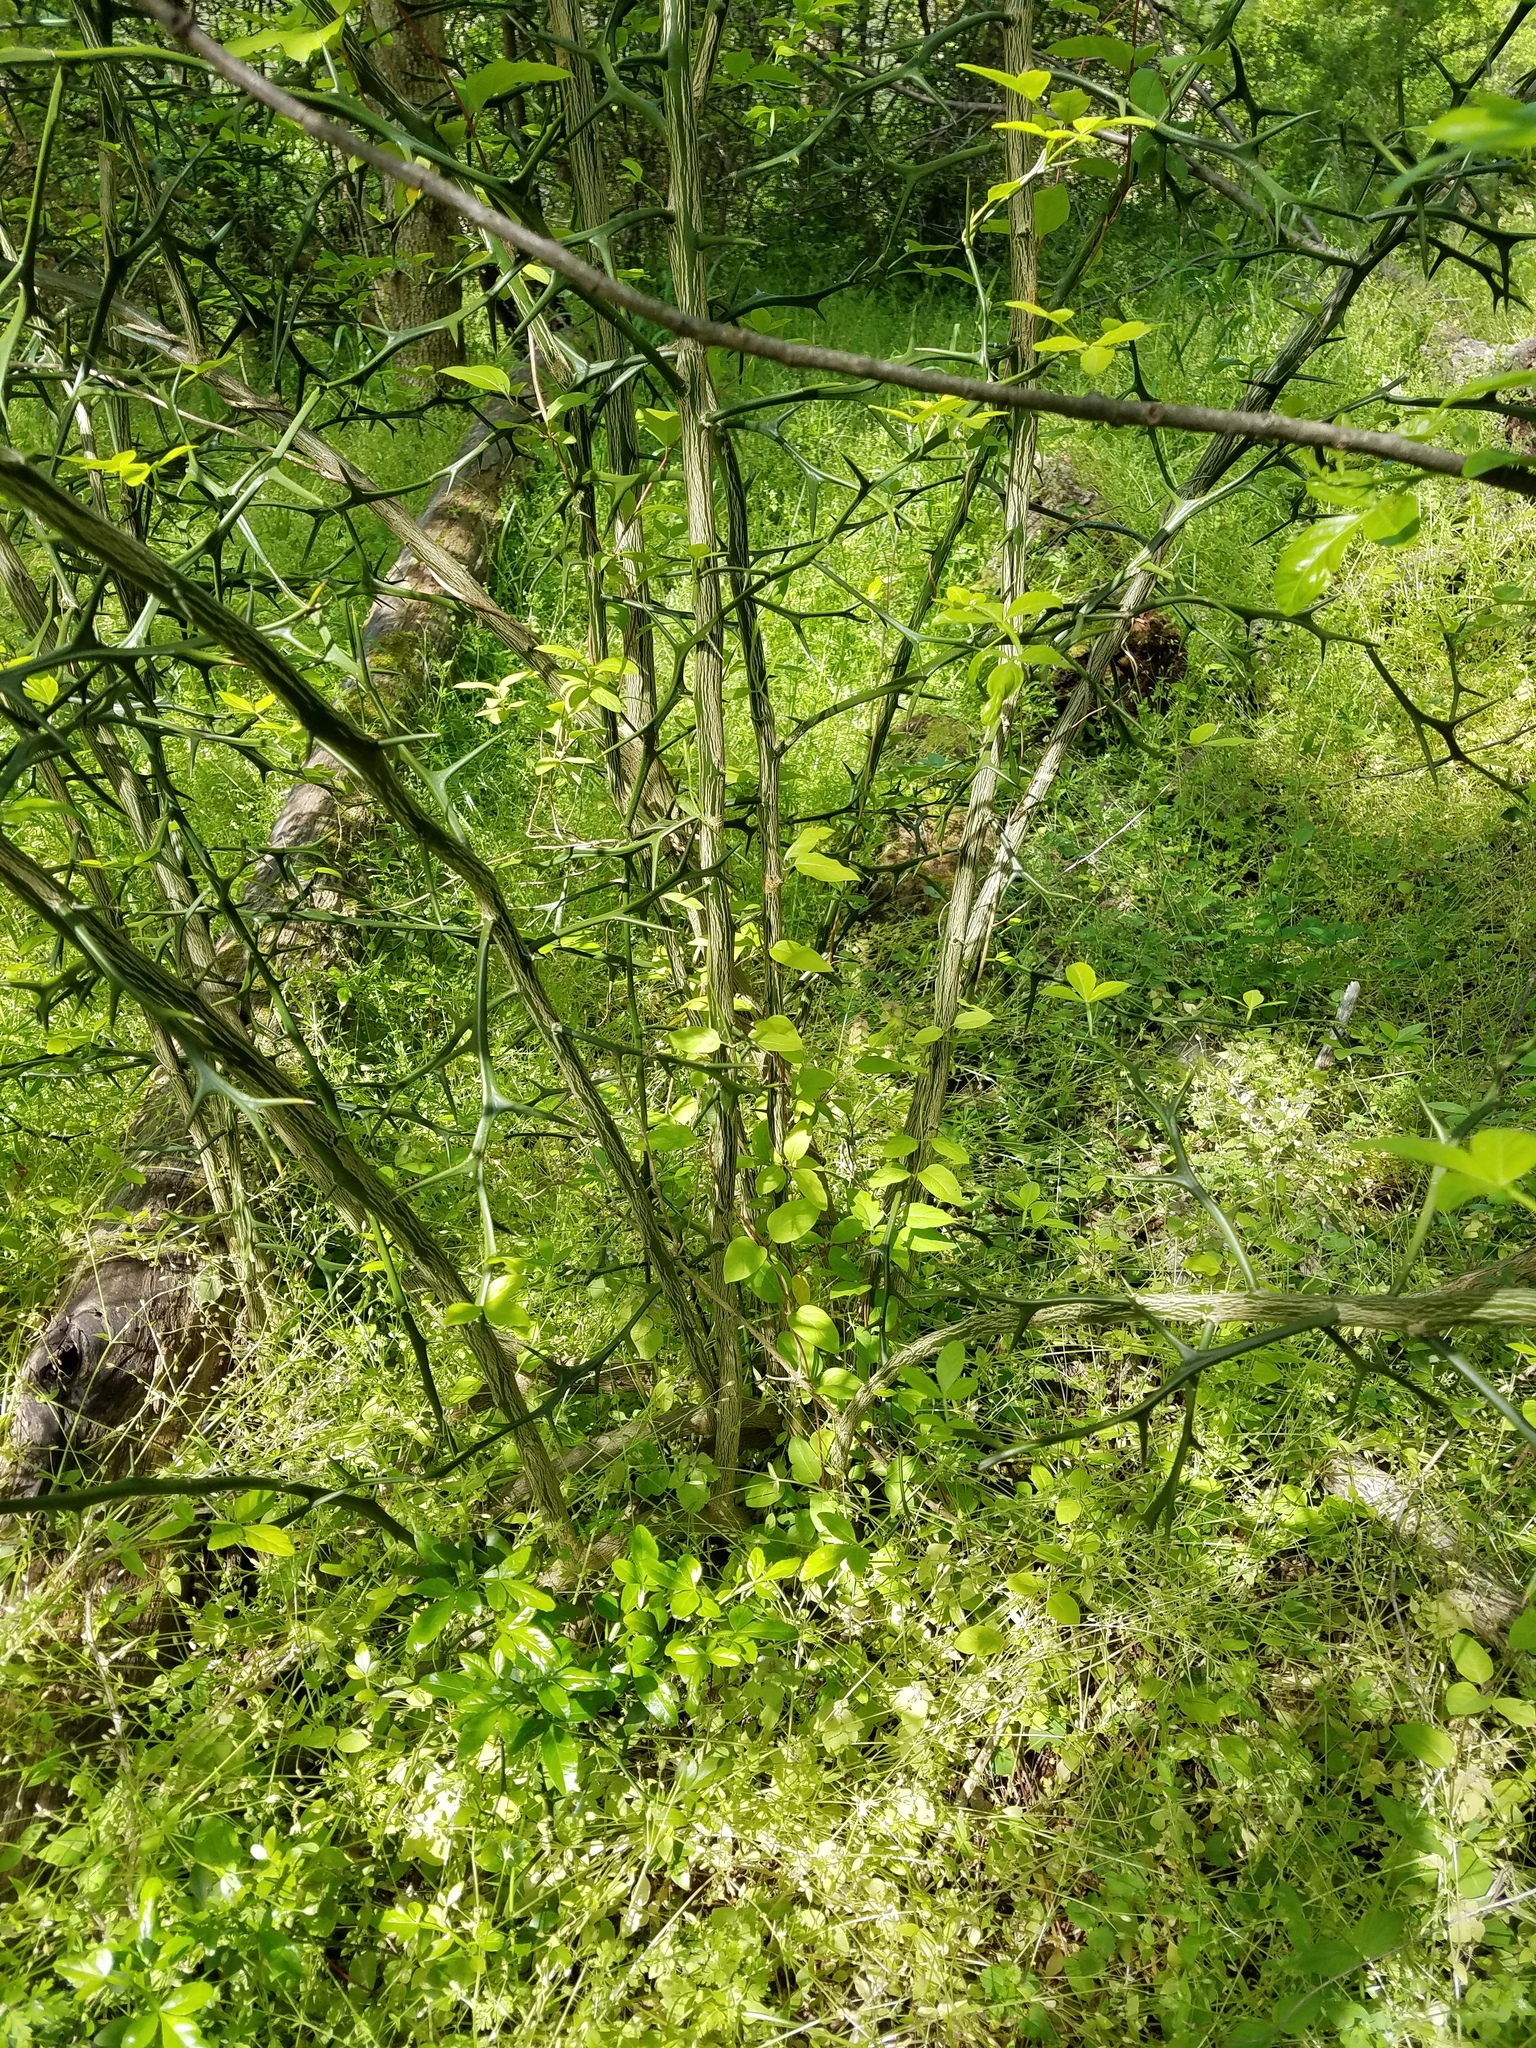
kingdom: Plantae
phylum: Tracheophyta
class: Magnoliopsida
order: Sapindales
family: Rutaceae
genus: Citrus
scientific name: Citrus trifoliata
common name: Japanese bitter-orange
